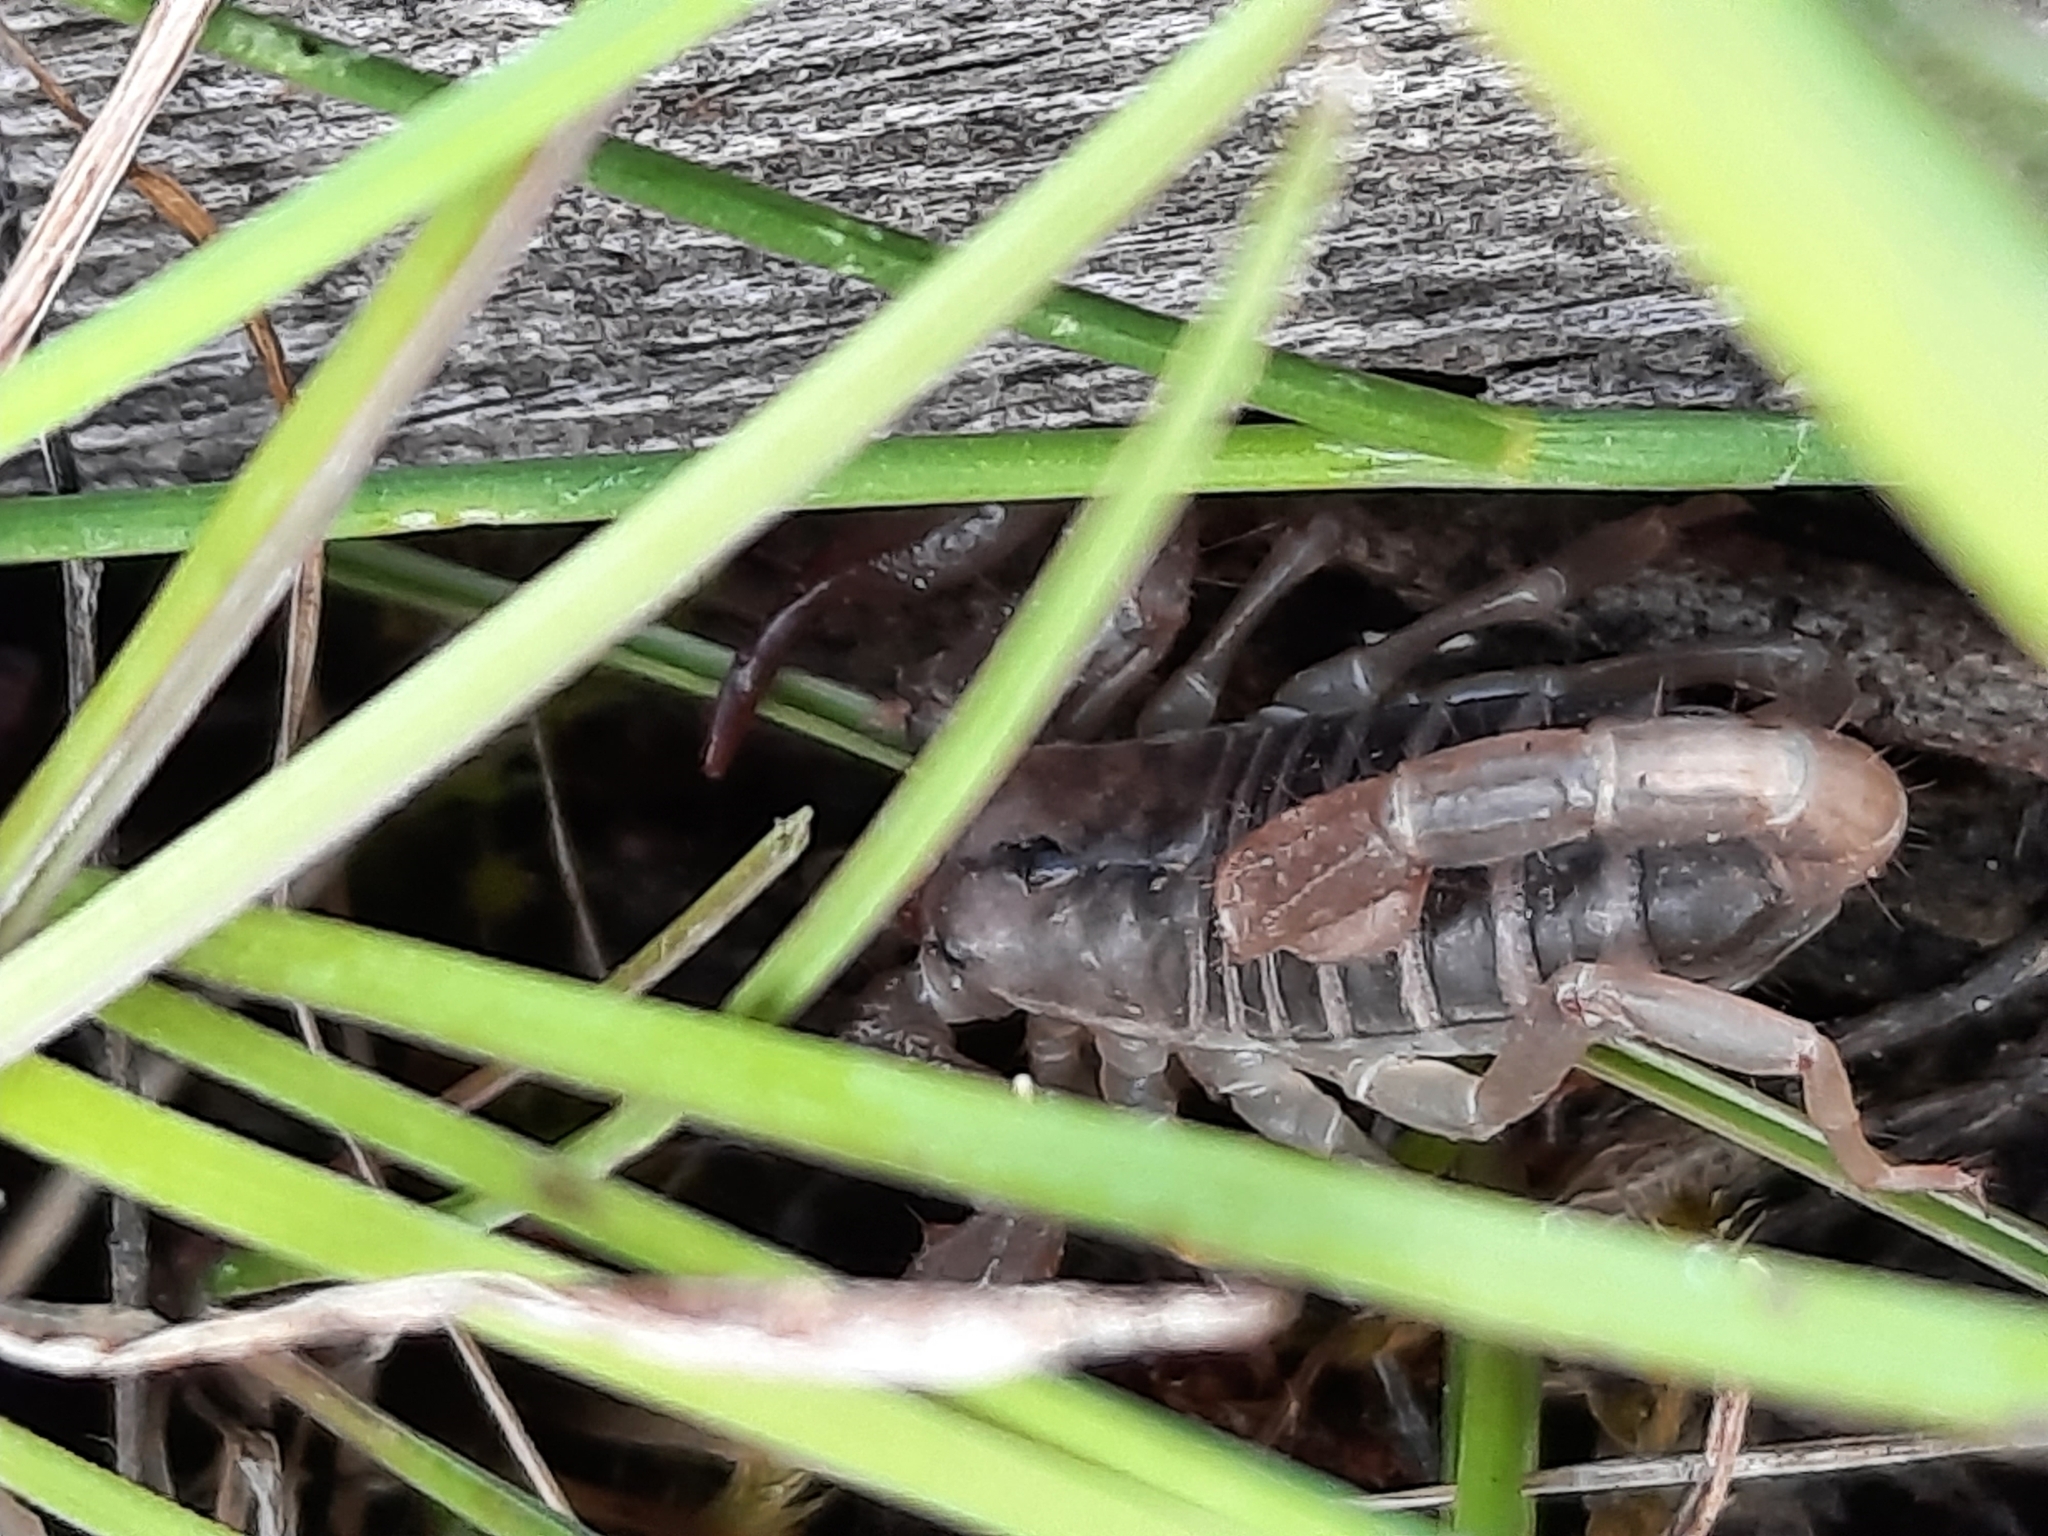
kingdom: Animalia
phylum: Arthropoda
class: Arachnida
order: Scorpiones
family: Vaejovidae
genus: Paruroctonus
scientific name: Paruroctonus boreus
